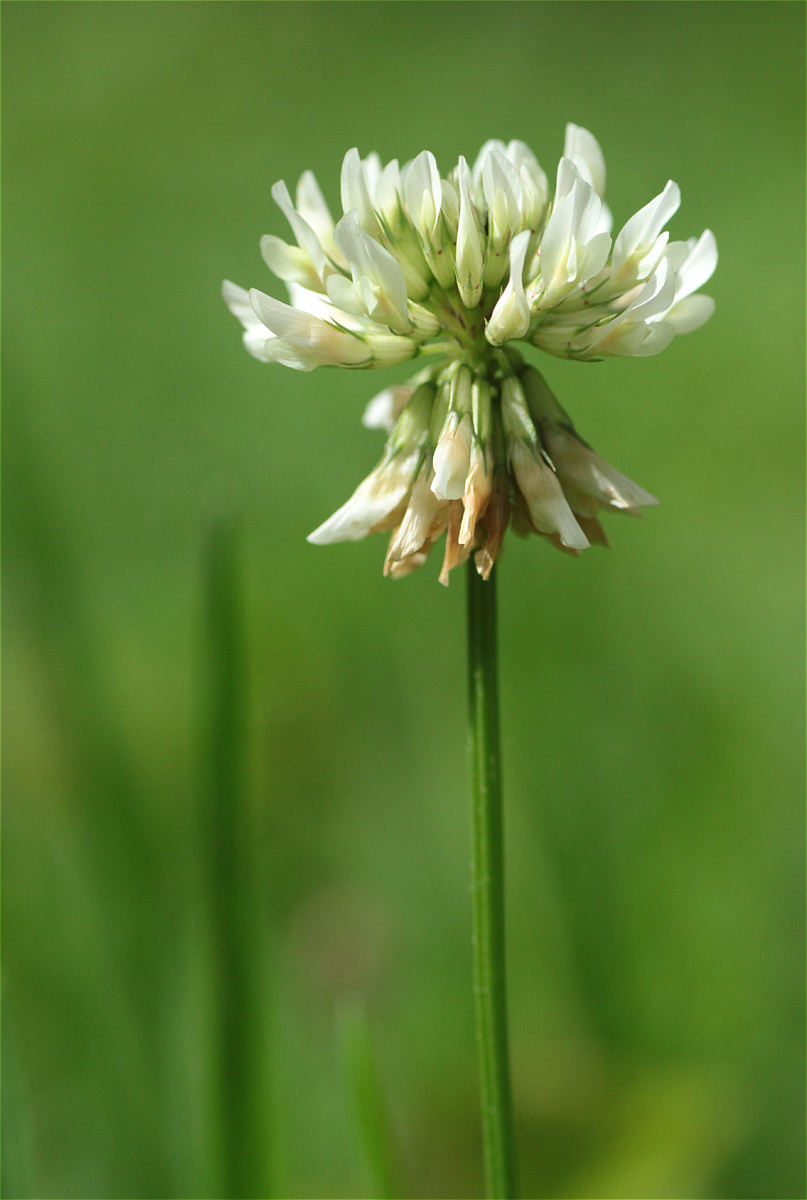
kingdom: Plantae
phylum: Tracheophyta
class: Magnoliopsida
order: Fabales
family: Fabaceae
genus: Trifolium
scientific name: Trifolium repens
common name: White clover
